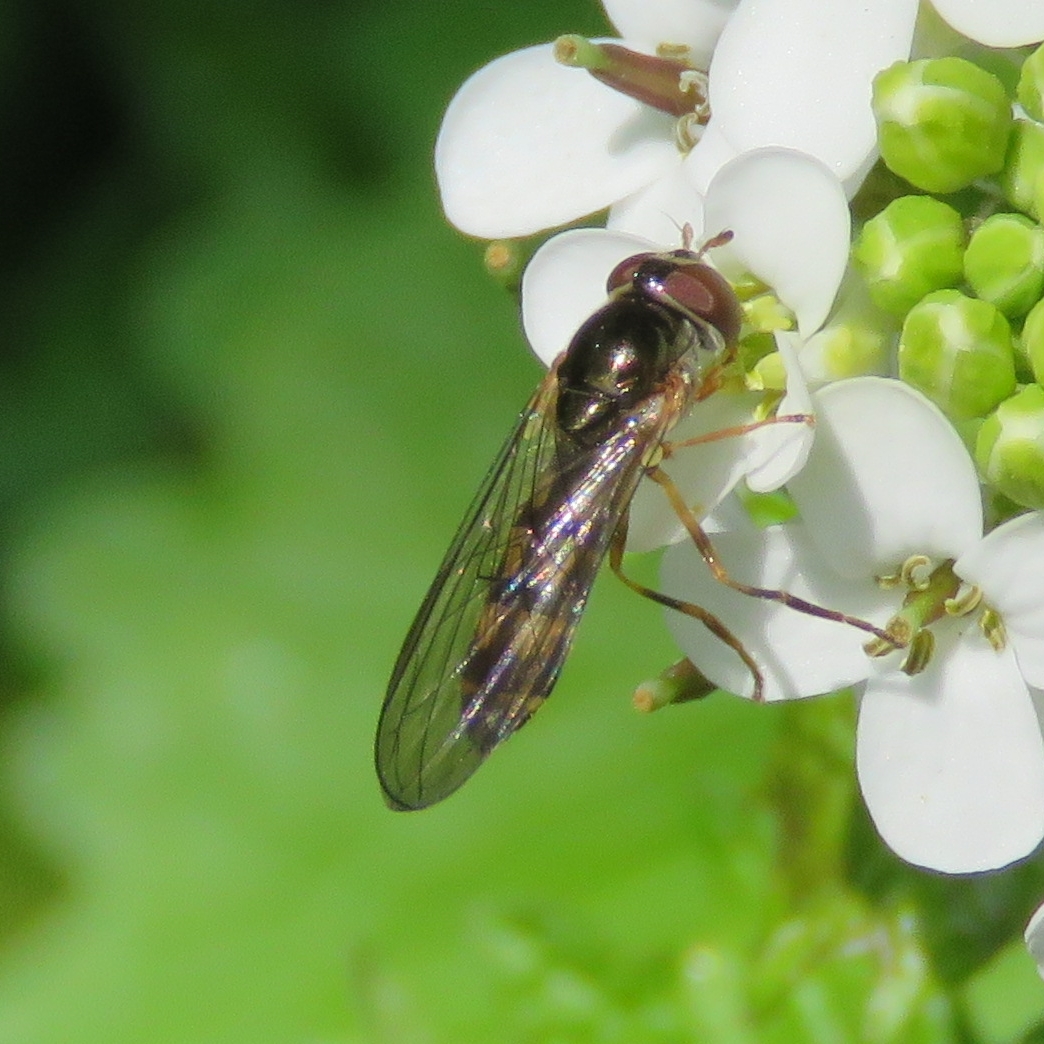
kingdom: Animalia
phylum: Arthropoda
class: Insecta
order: Diptera
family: Syrphidae
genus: Melanostoma
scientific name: Melanostoma scalare
